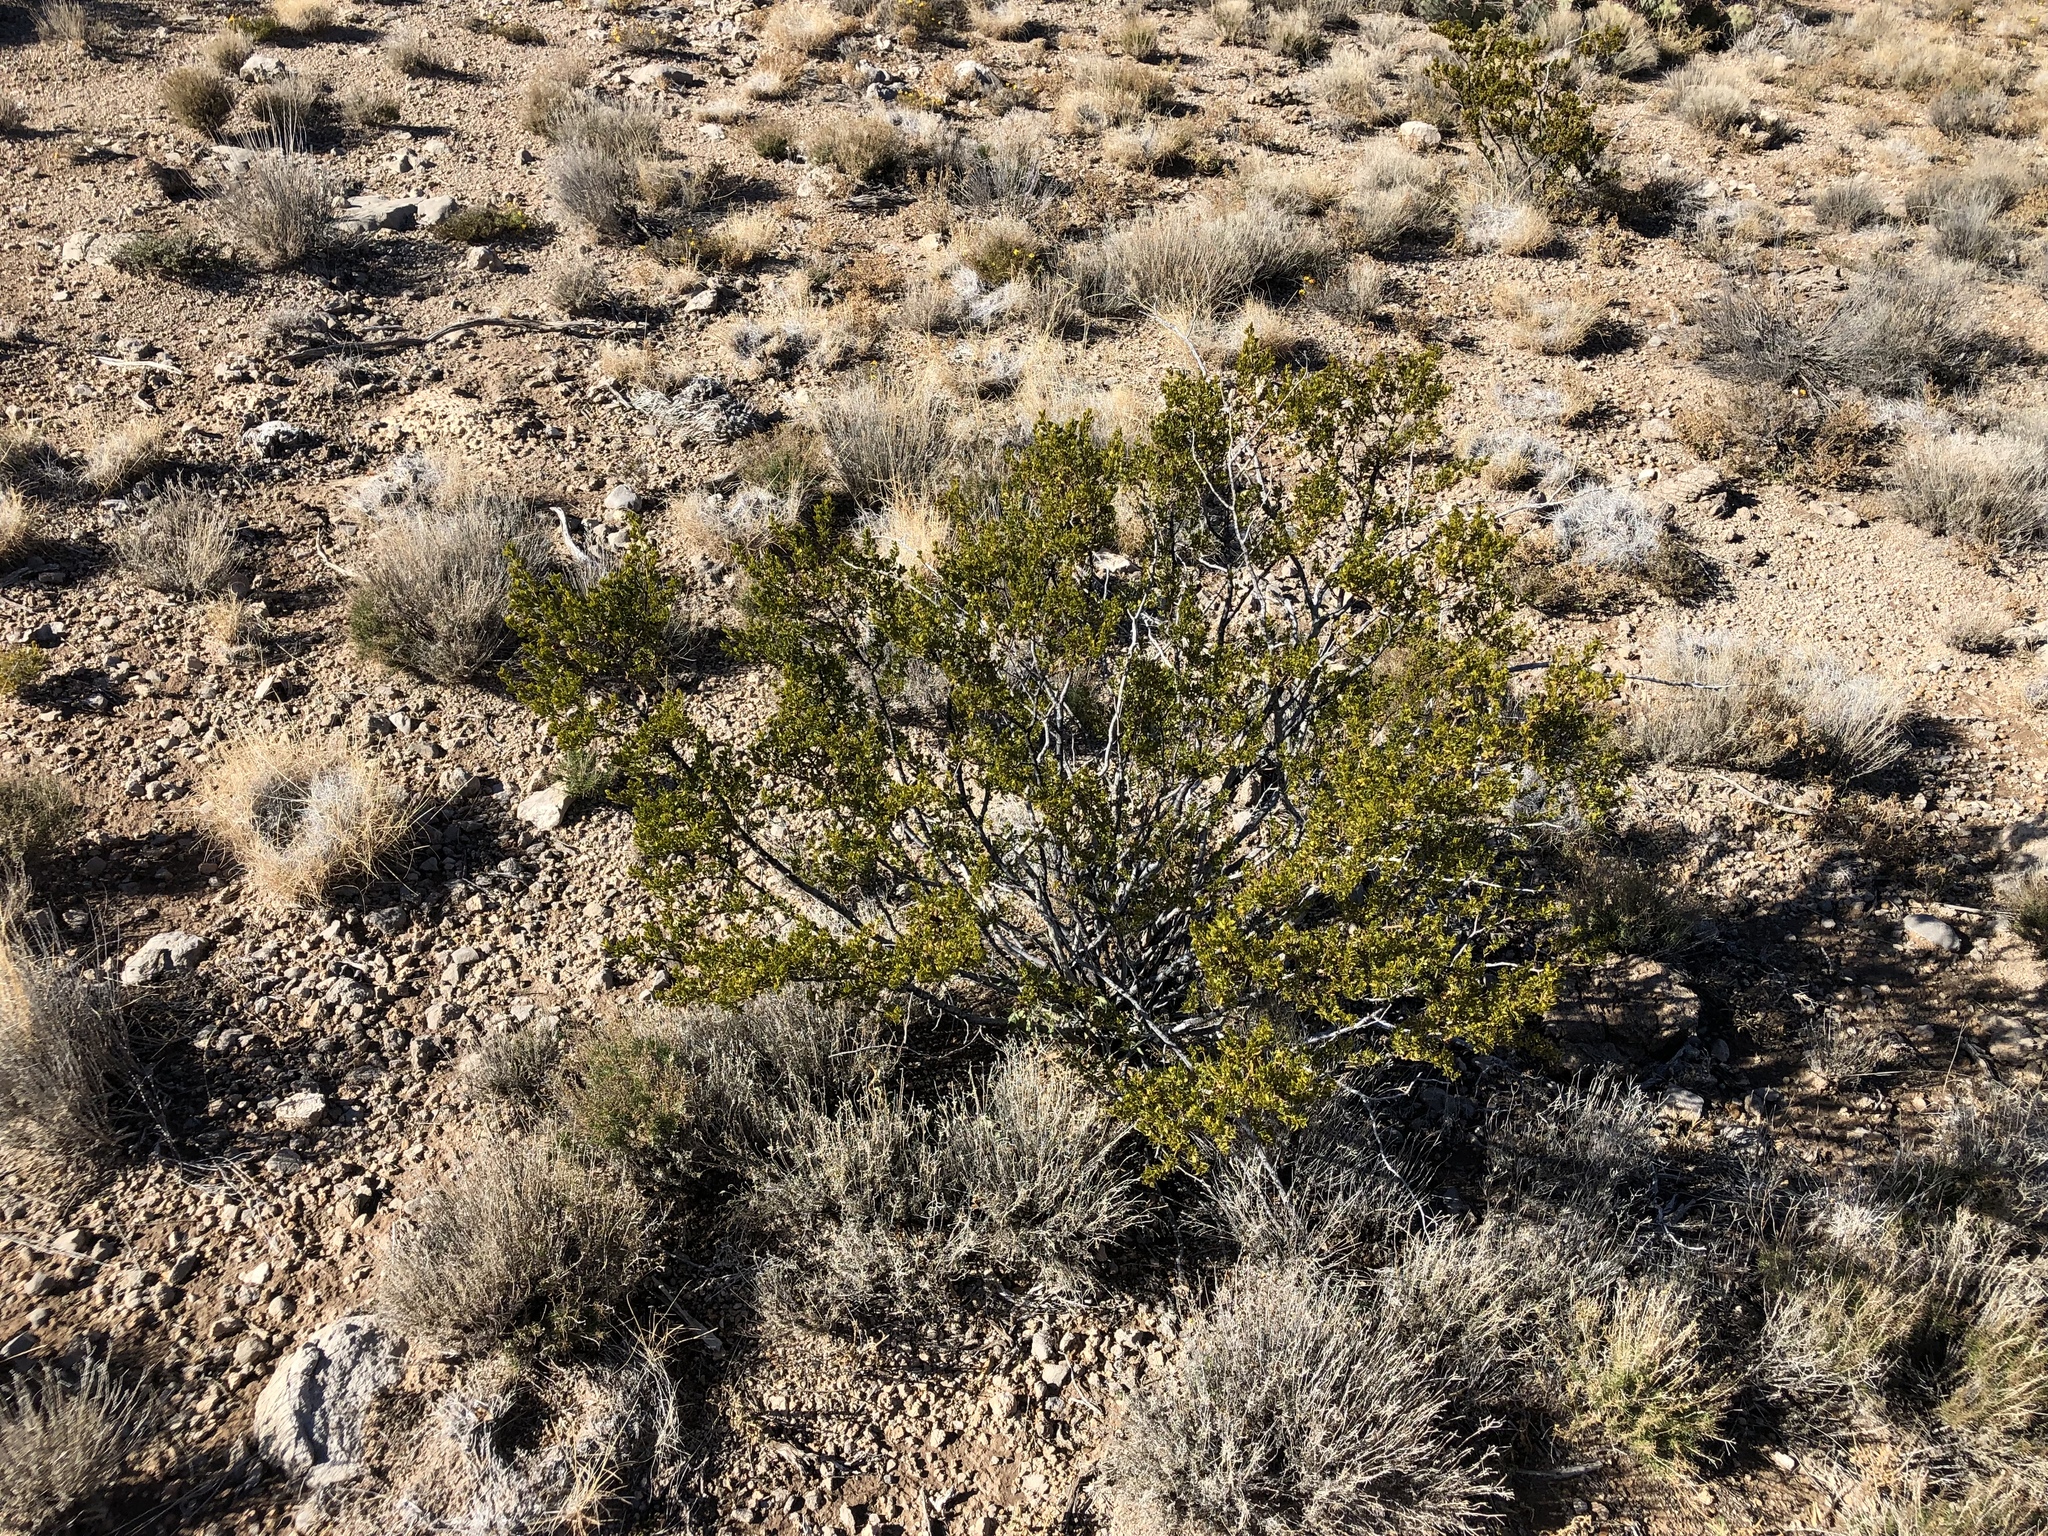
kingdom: Plantae
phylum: Tracheophyta
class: Magnoliopsida
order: Zygophyllales
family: Zygophyllaceae
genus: Larrea
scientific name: Larrea tridentata
